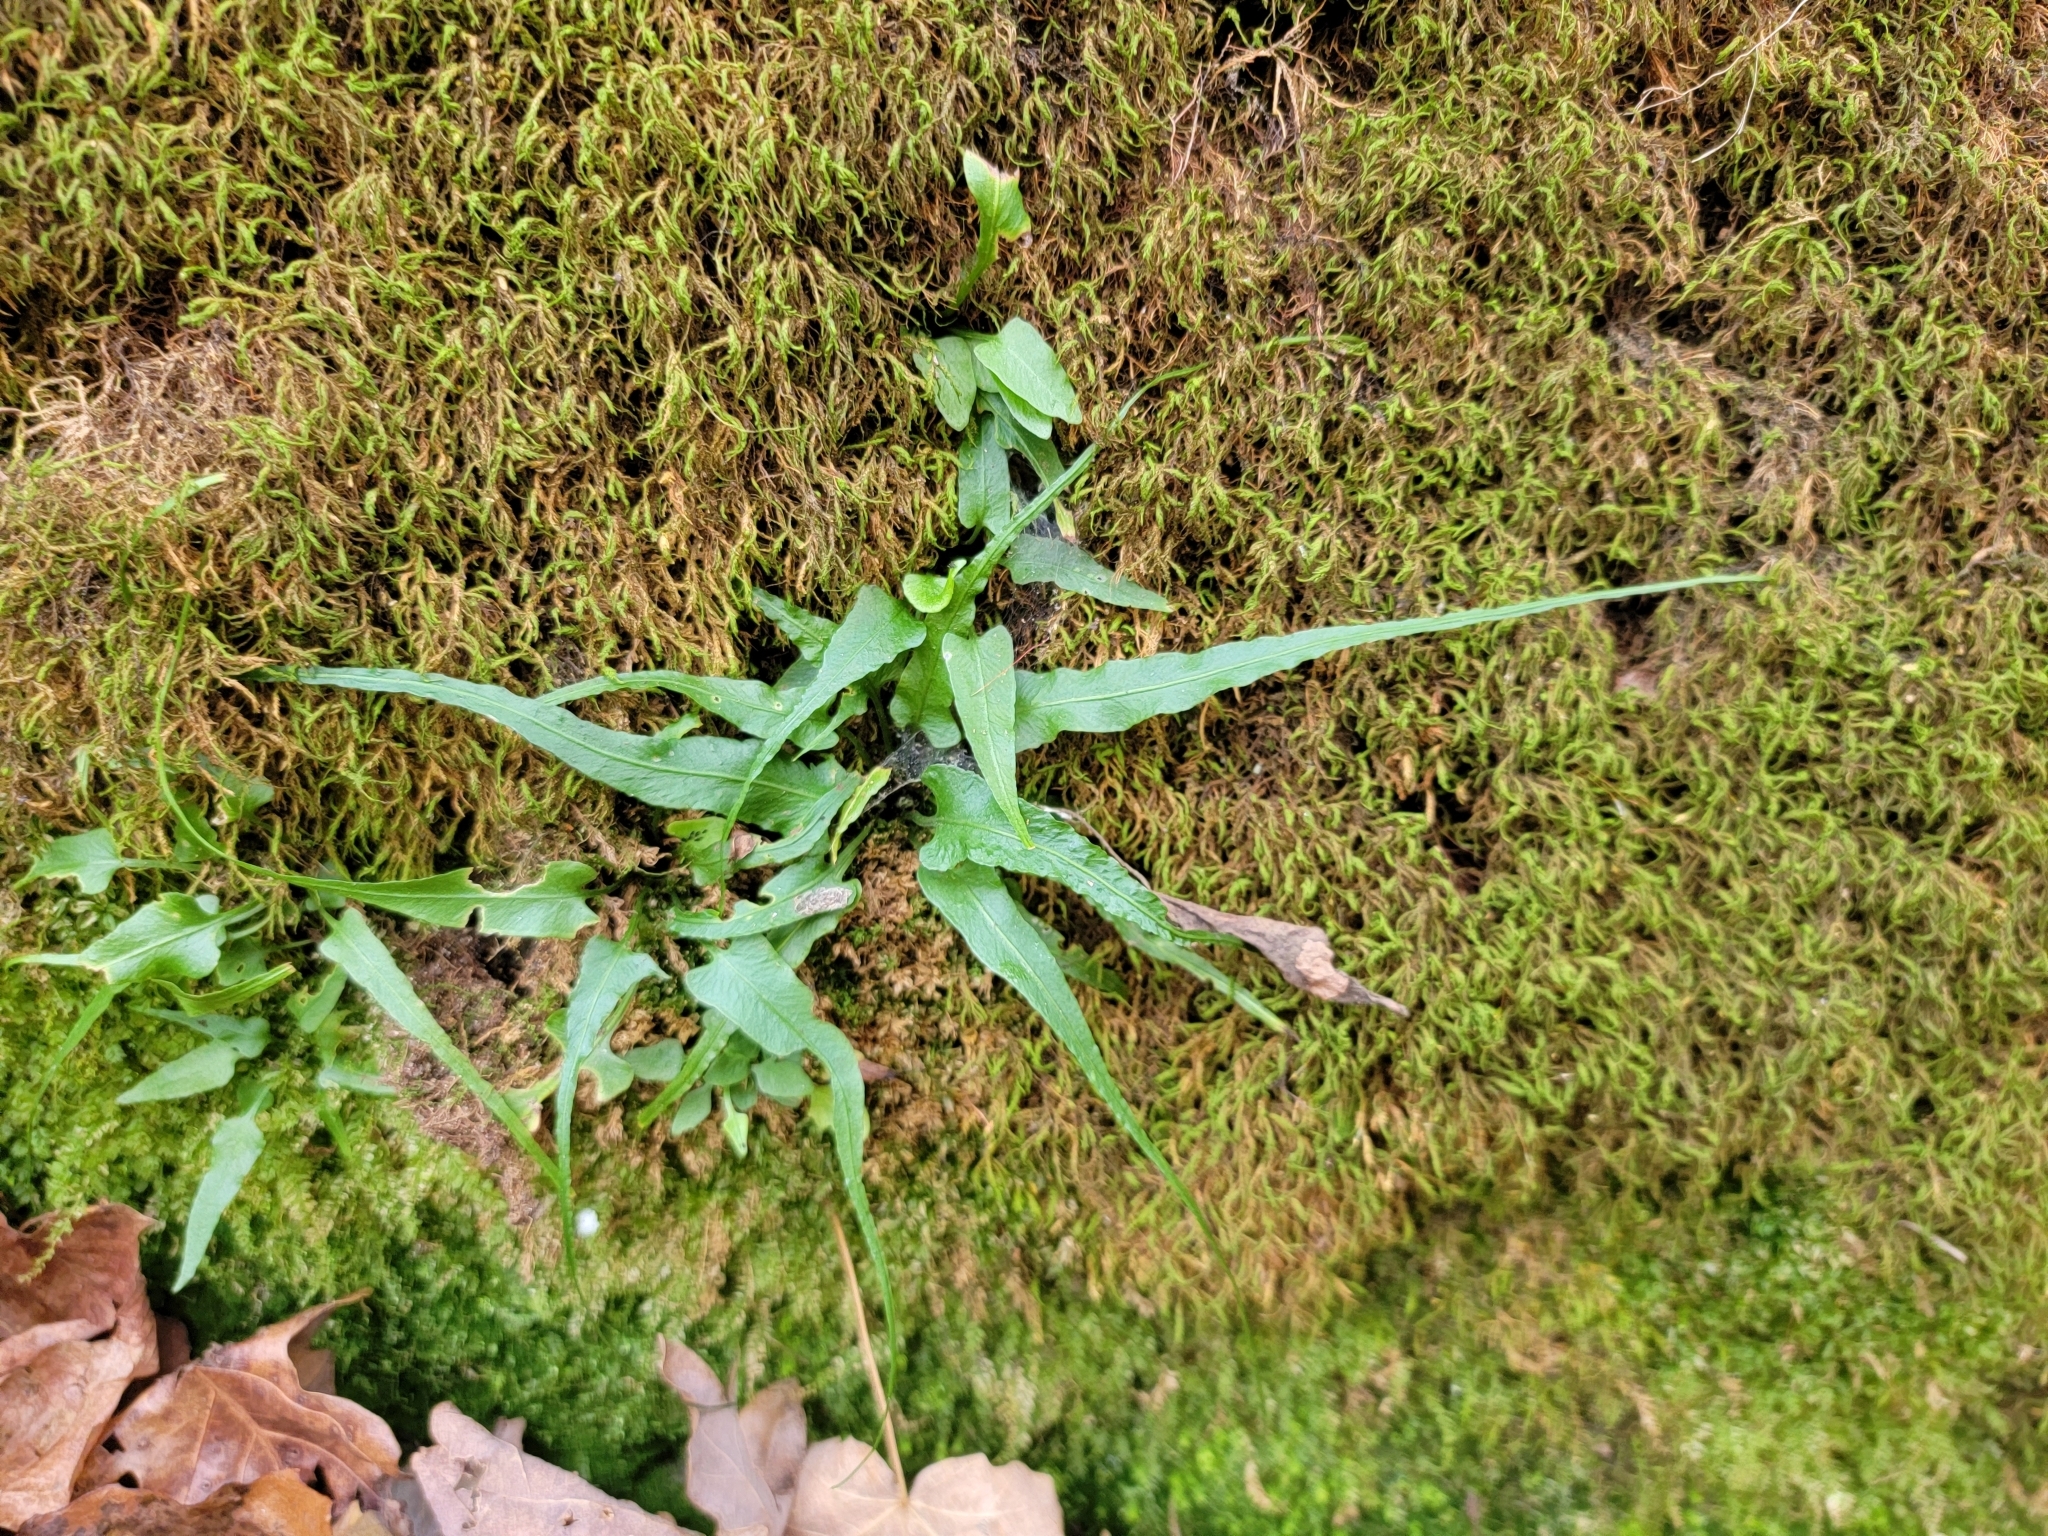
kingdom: Plantae
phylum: Tracheophyta
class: Polypodiopsida
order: Polypodiales
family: Aspleniaceae
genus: Asplenium
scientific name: Asplenium rhizophyllum
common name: Walking fern
